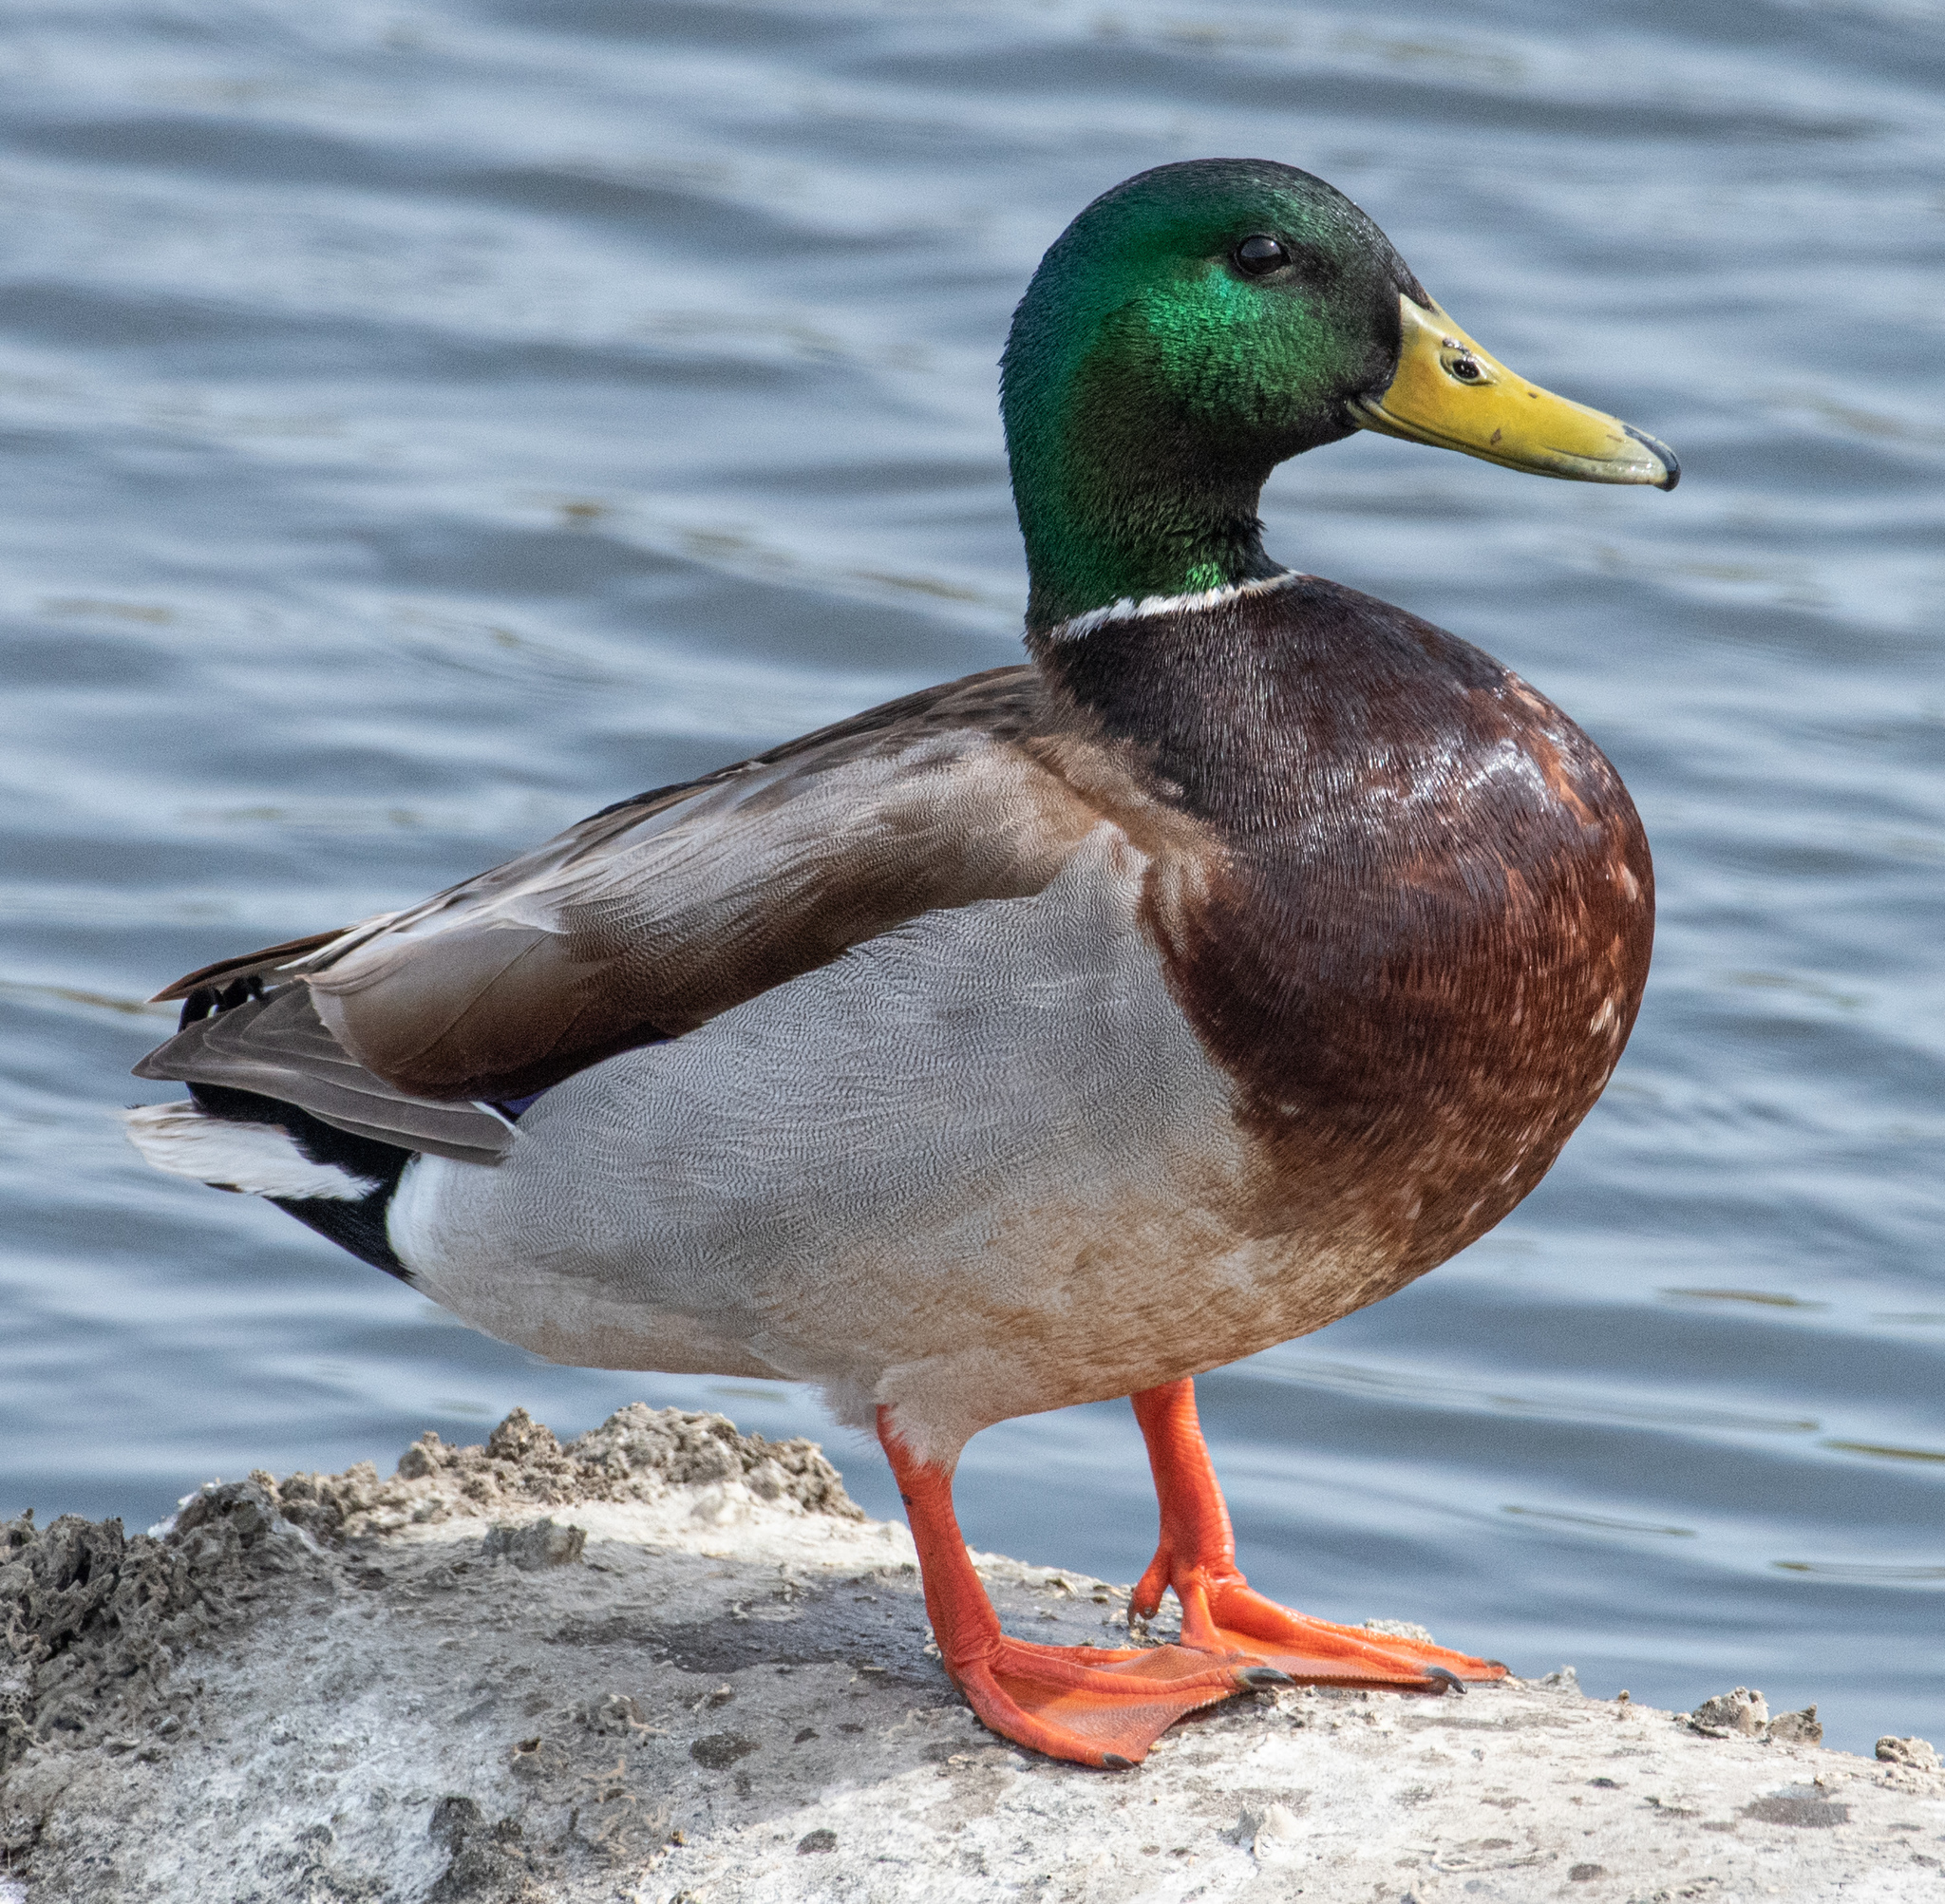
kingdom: Animalia
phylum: Chordata
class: Aves
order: Anseriformes
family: Anatidae
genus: Anas
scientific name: Anas platyrhynchos
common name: Mallard
